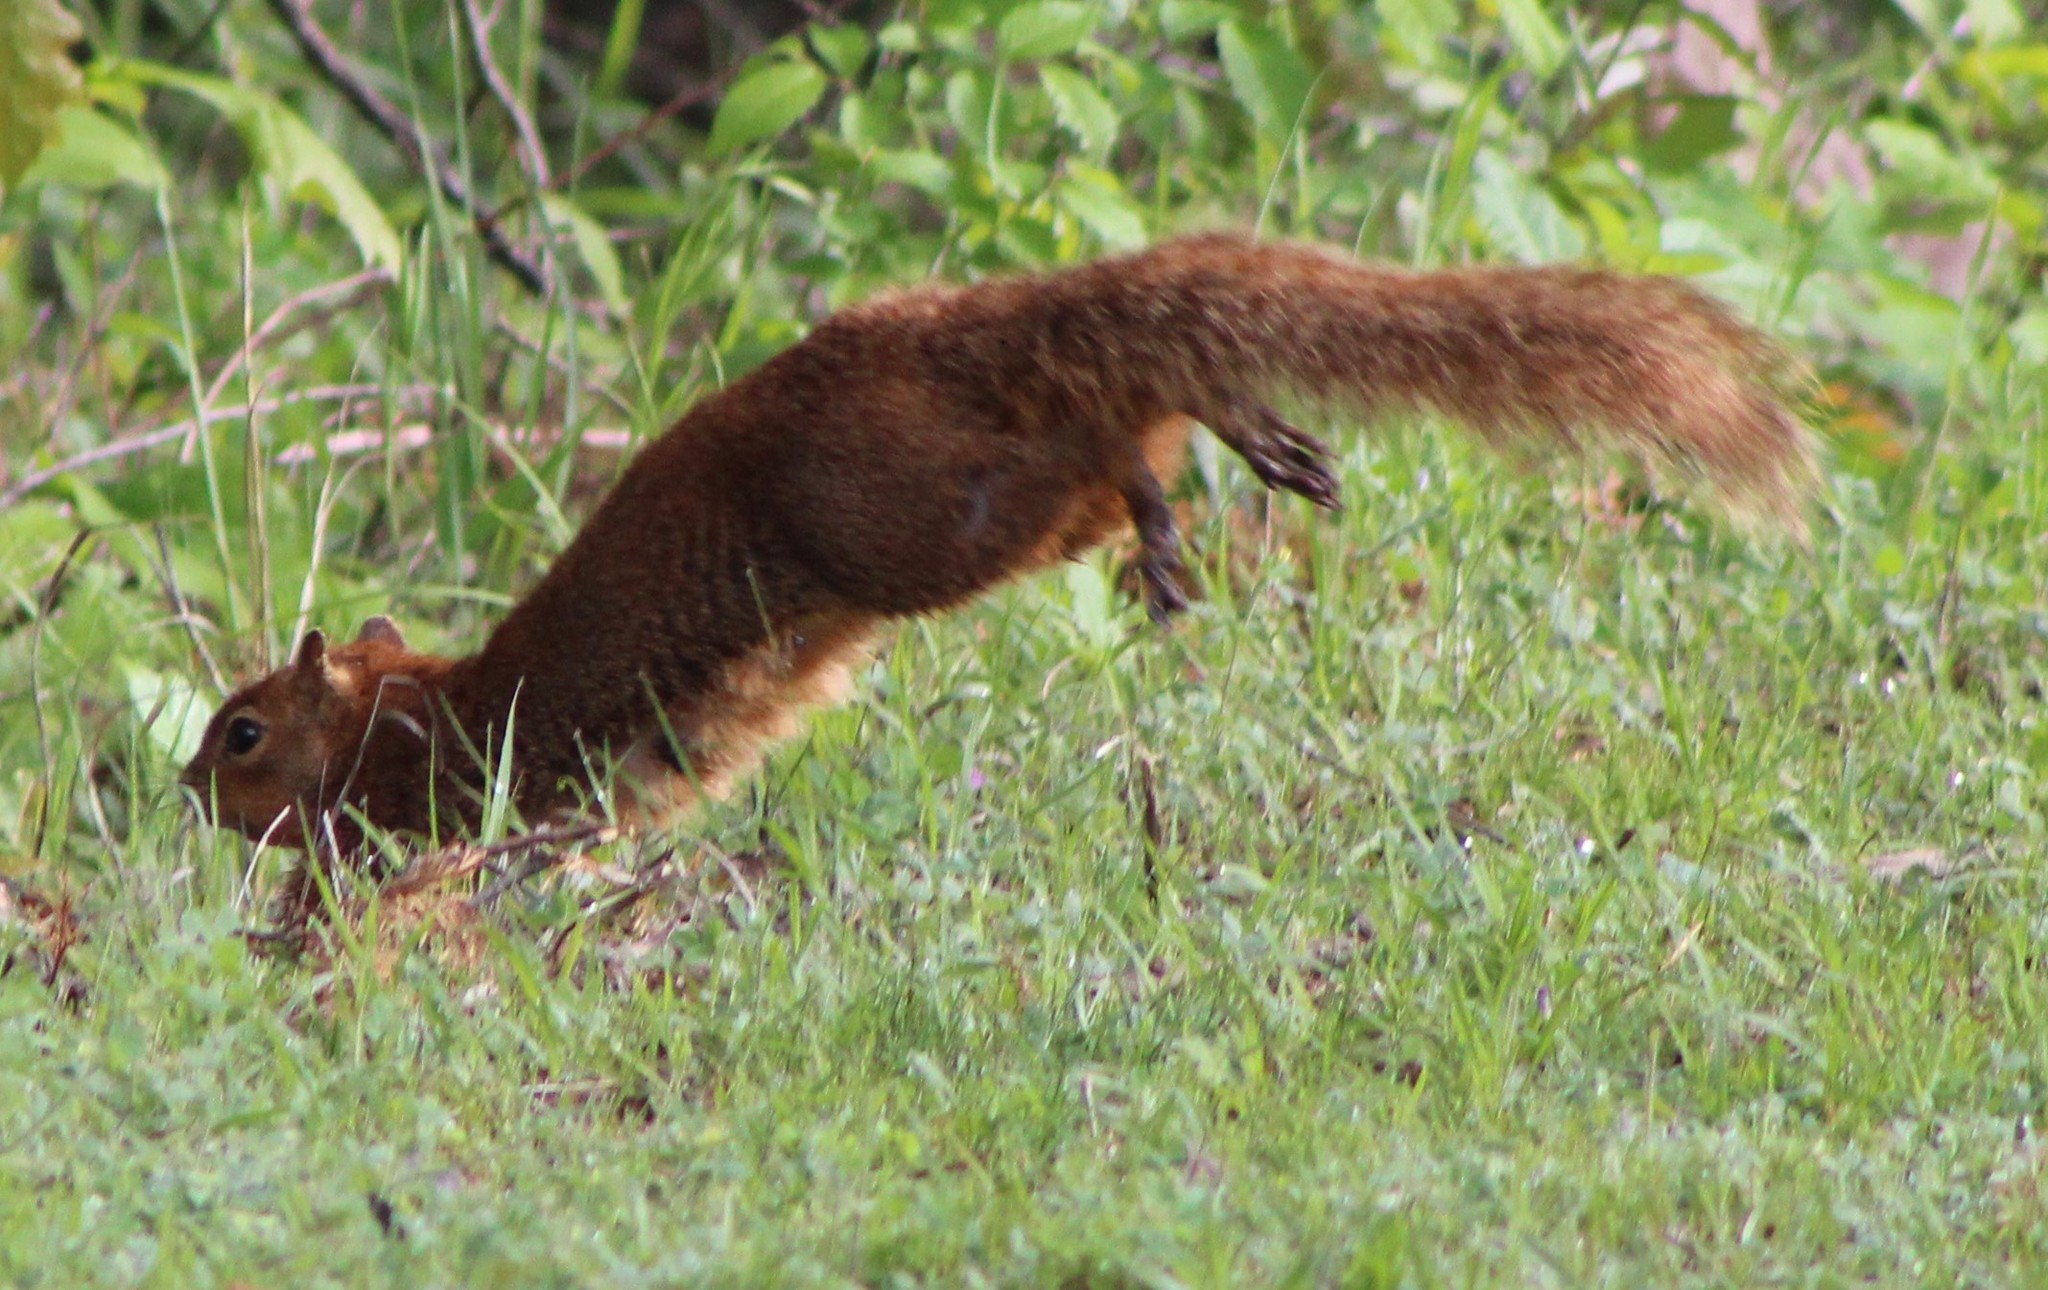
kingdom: Animalia
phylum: Chordata
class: Mammalia
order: Rodentia
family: Sciuridae
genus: Sciurus
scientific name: Sciurus niger
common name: Fox squirrel
